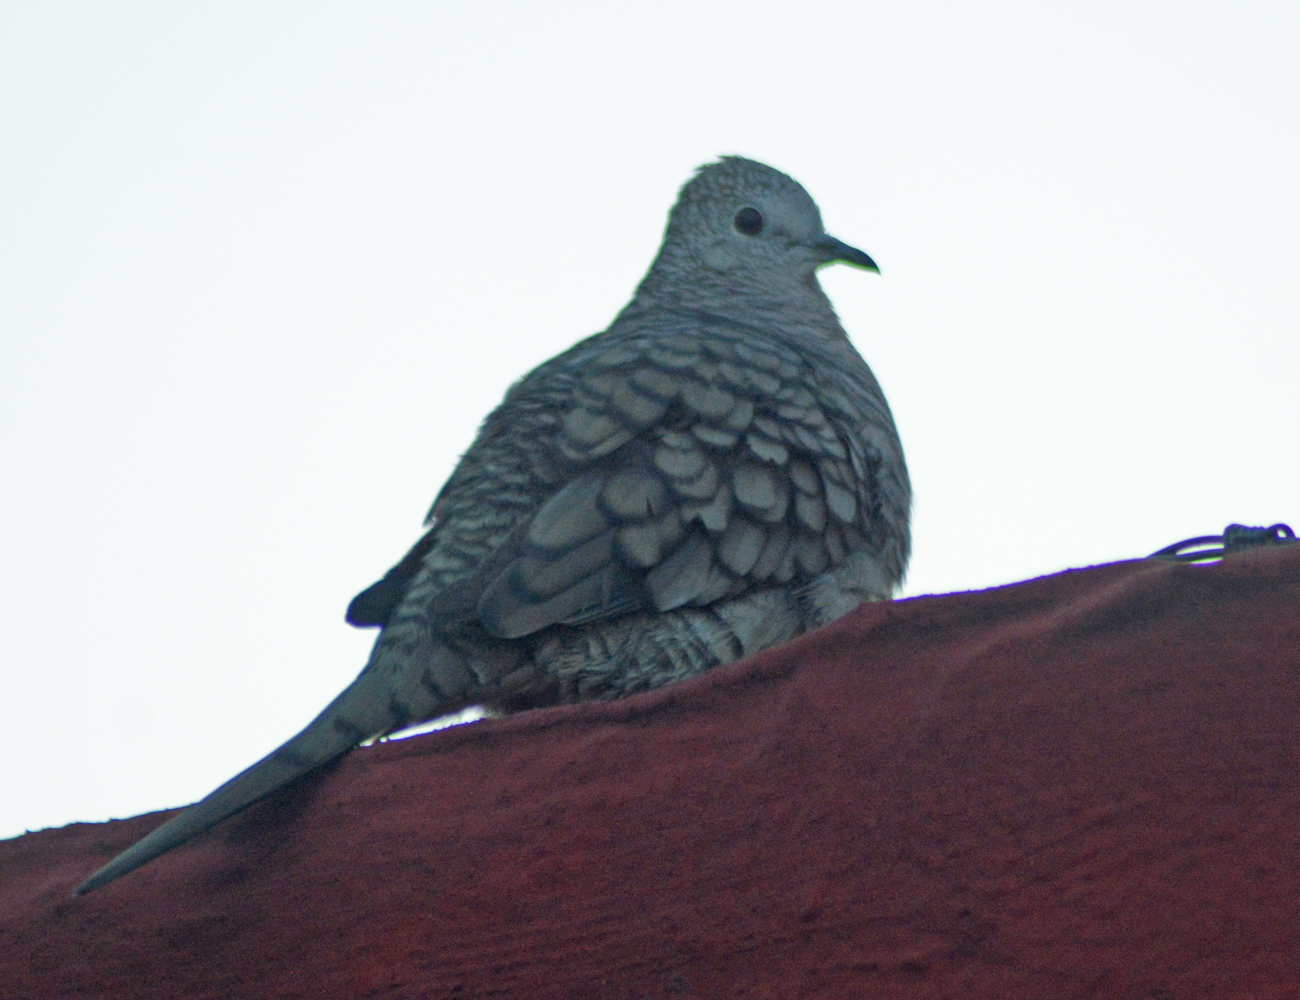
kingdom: Animalia
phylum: Chordata
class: Aves
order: Columbiformes
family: Columbidae
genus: Columbina
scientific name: Columbina inca
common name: Inca dove
